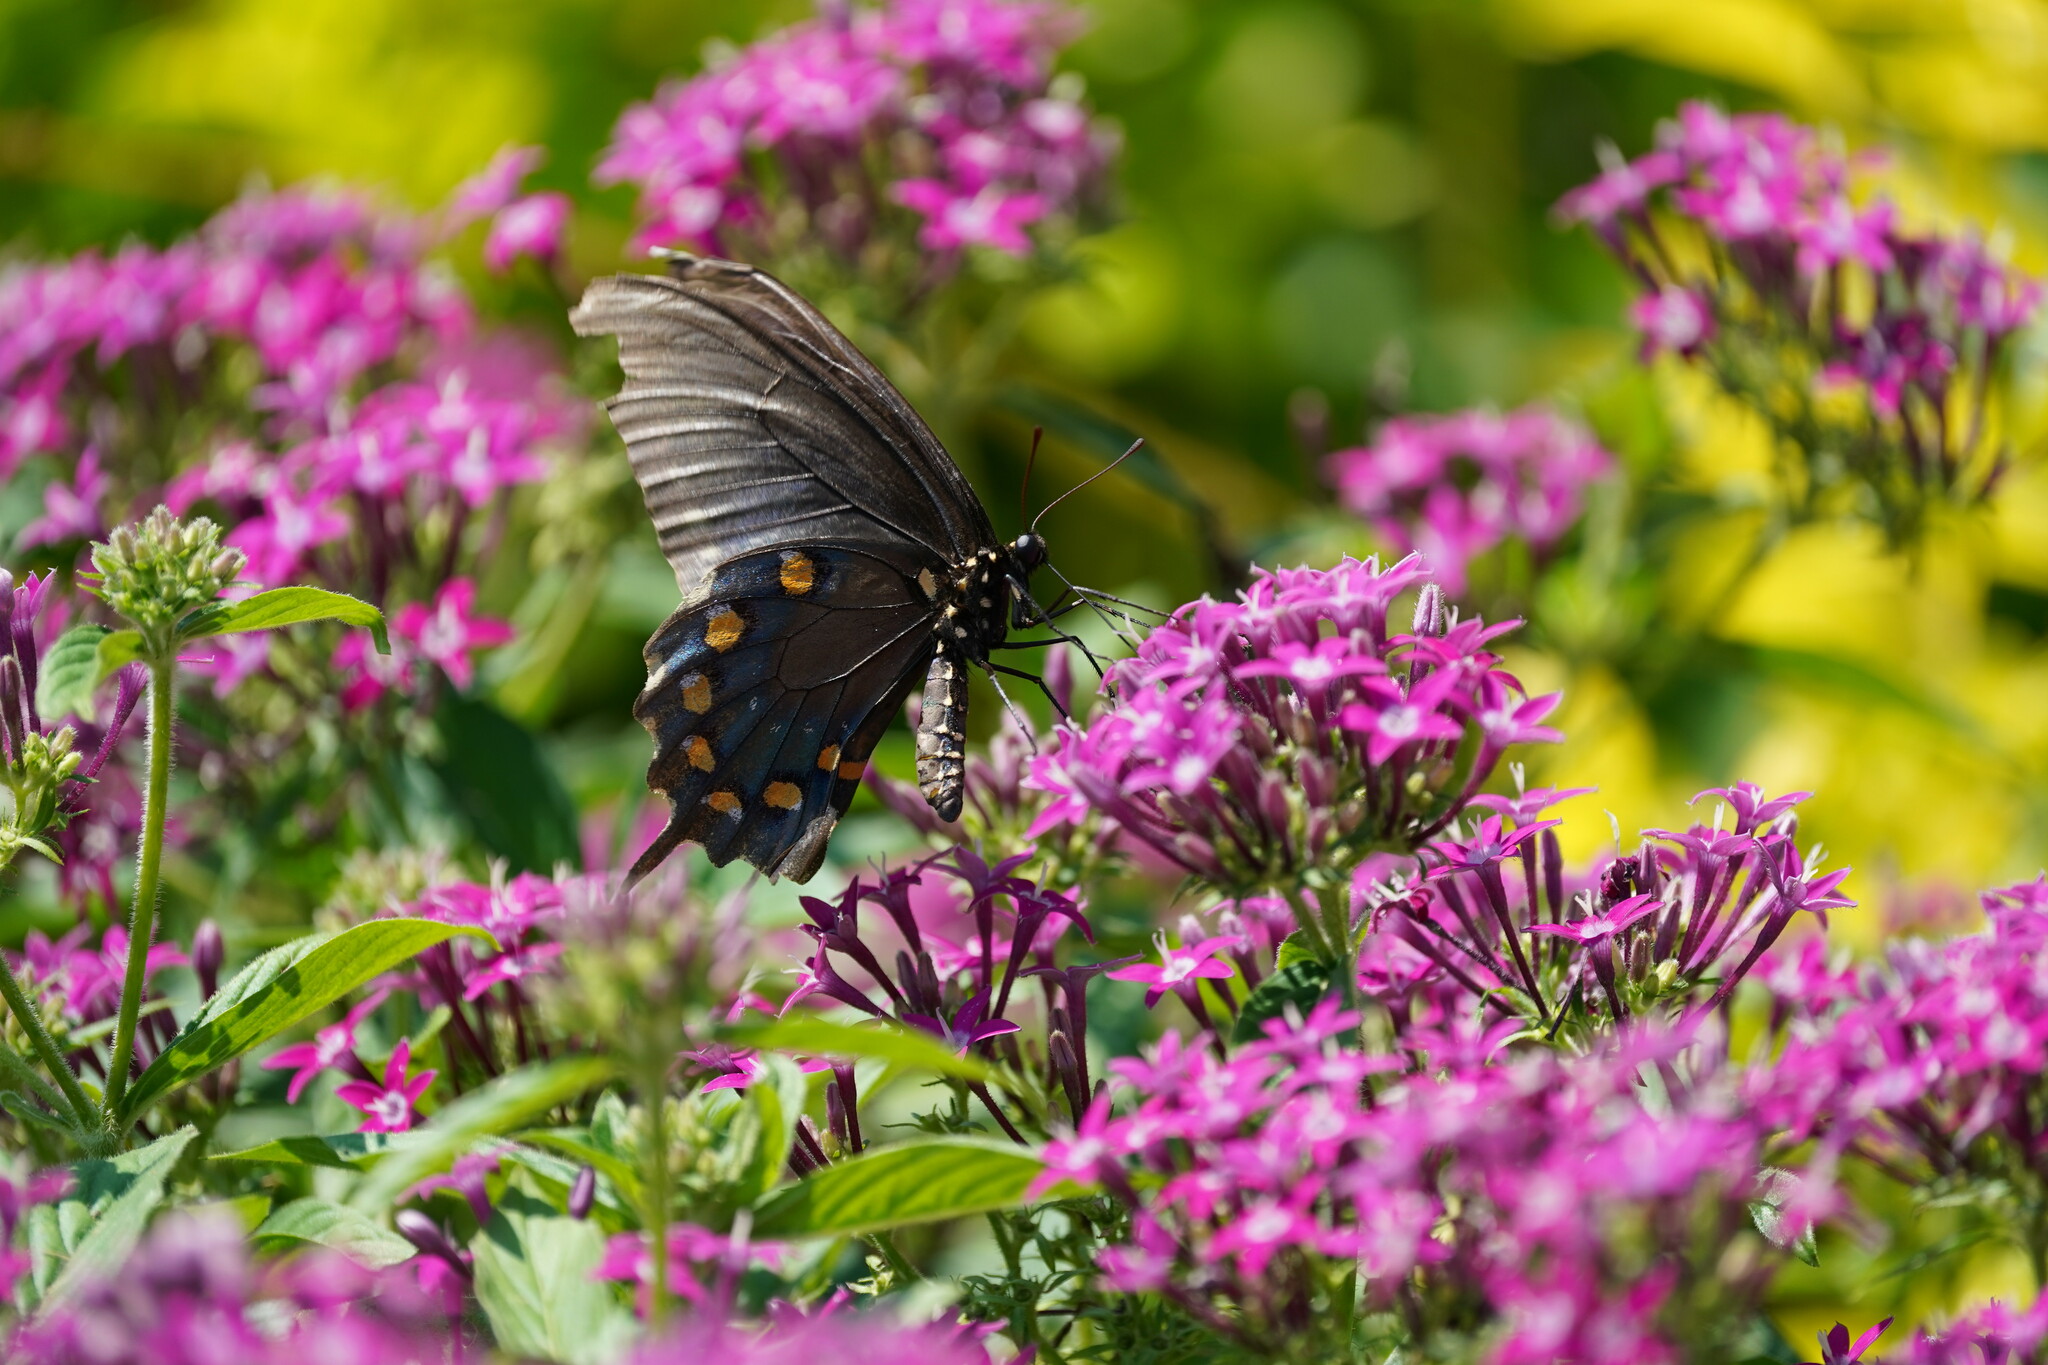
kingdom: Animalia
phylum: Arthropoda
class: Insecta
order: Lepidoptera
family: Papilionidae
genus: Battus
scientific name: Battus philenor
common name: Pipevine swallowtail
